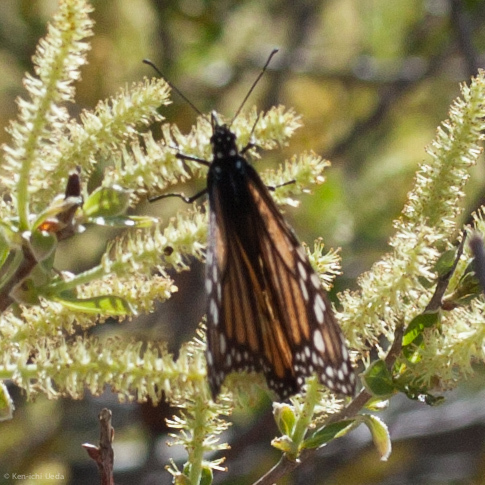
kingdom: Animalia
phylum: Arthropoda
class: Insecta
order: Lepidoptera
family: Nymphalidae
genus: Danaus
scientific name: Danaus plexippus
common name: Monarch
